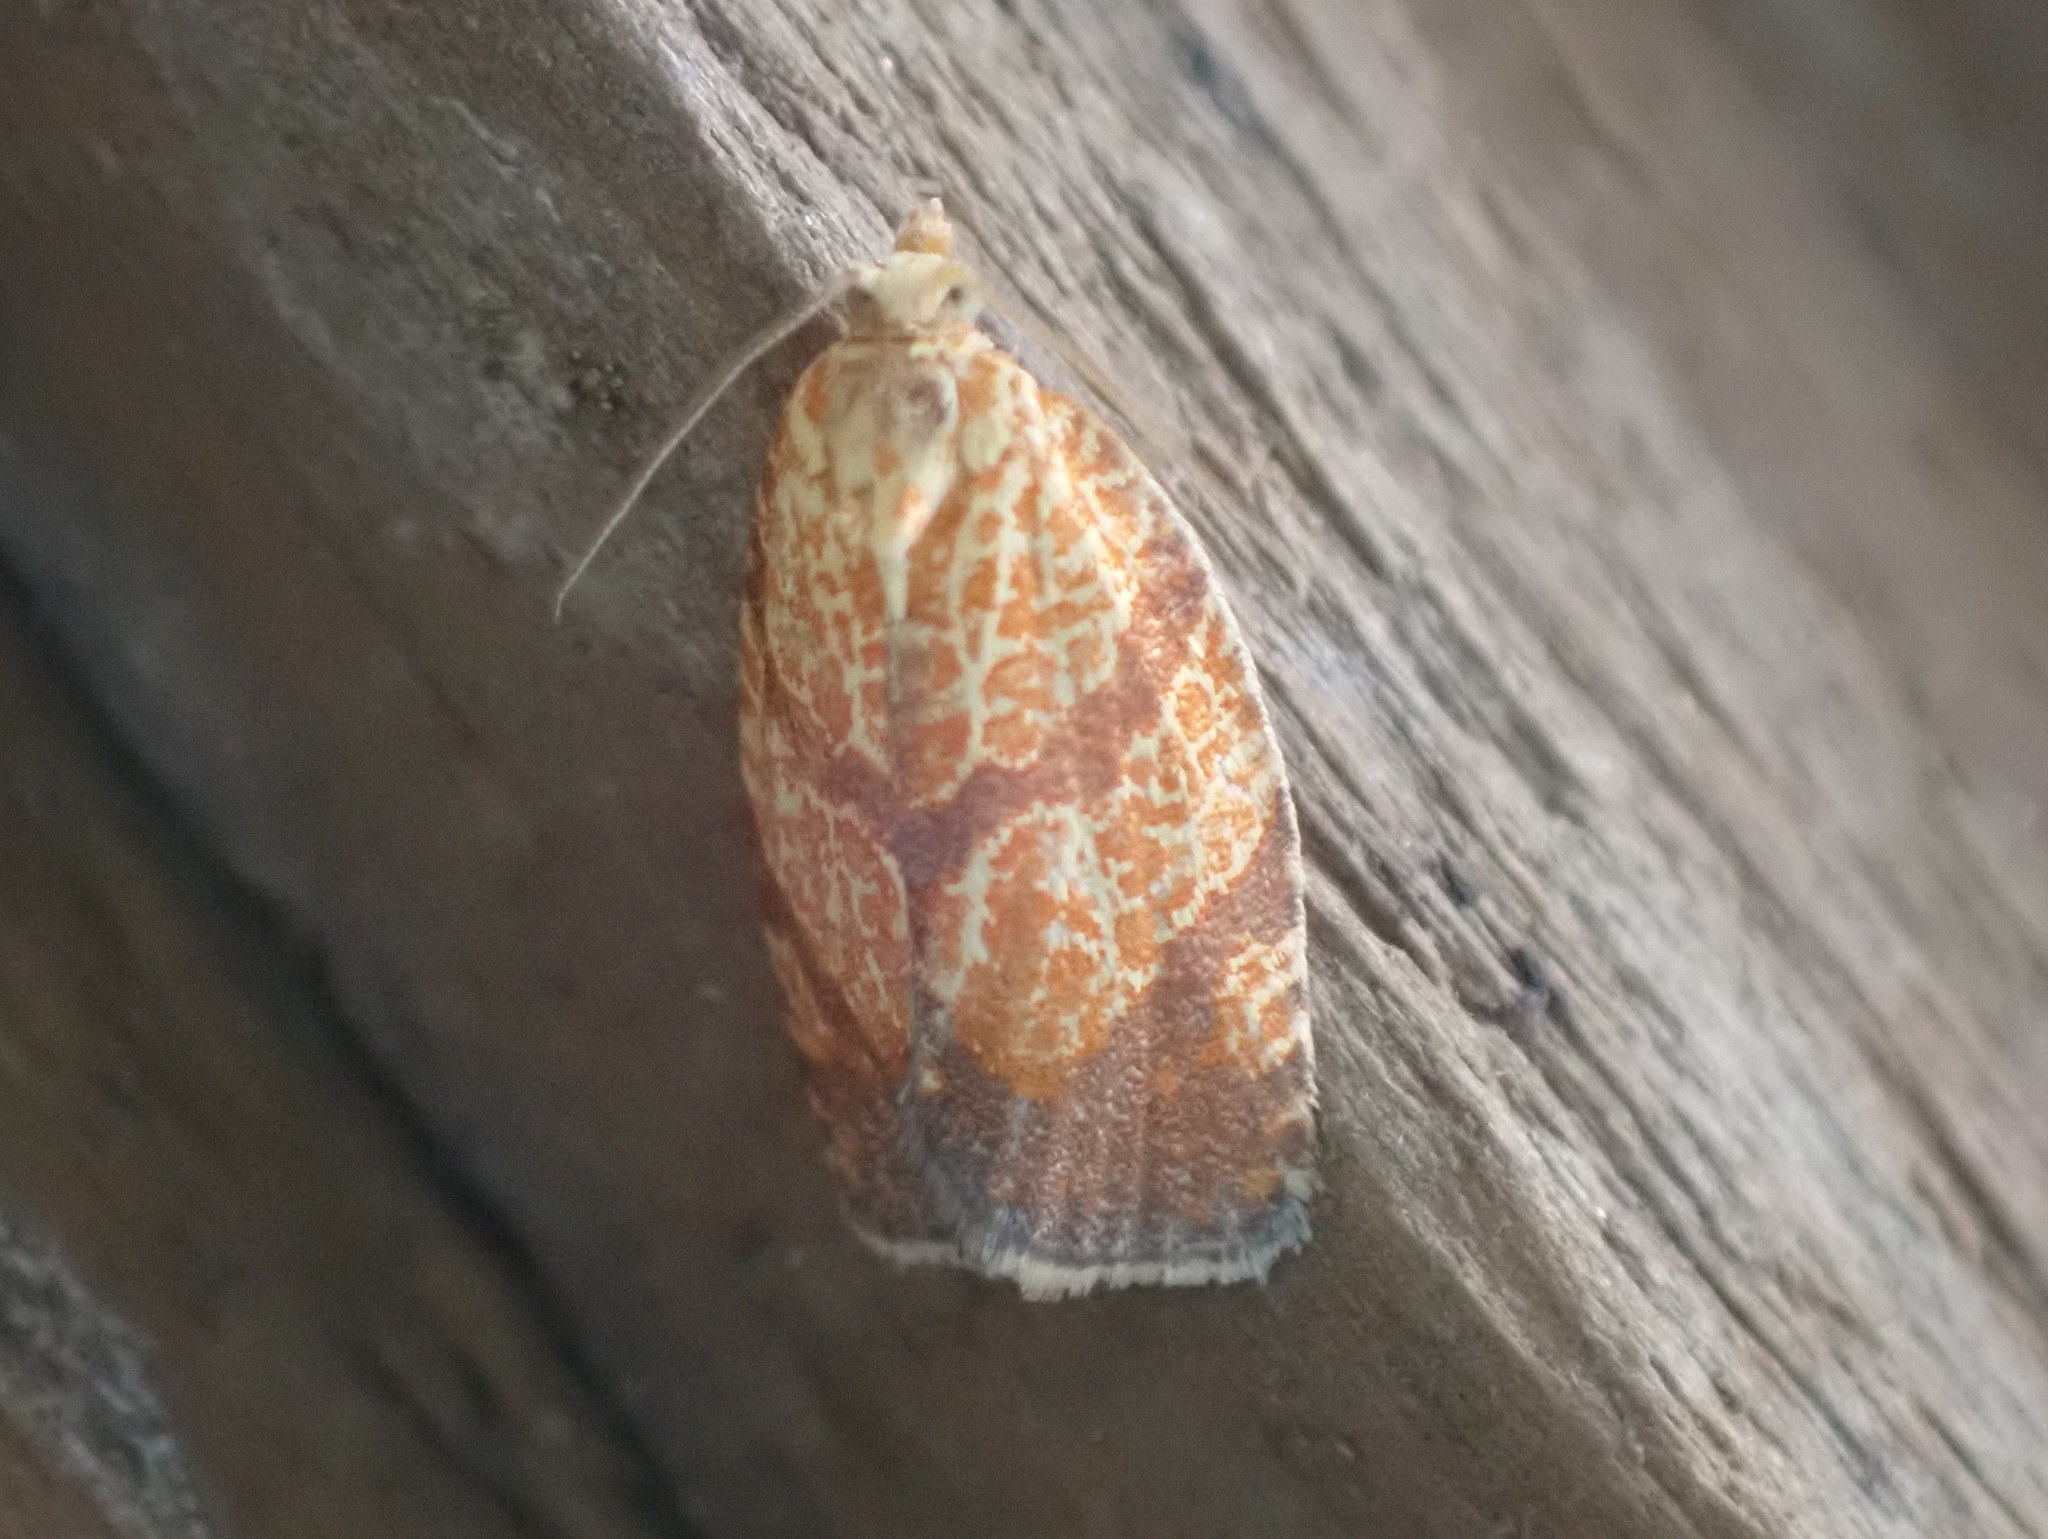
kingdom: Animalia
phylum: Arthropoda
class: Insecta
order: Lepidoptera
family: Tortricidae
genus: Argyrotaenia
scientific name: Argyrotaenia quadrifasciana
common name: Four-lined leafroller moth
